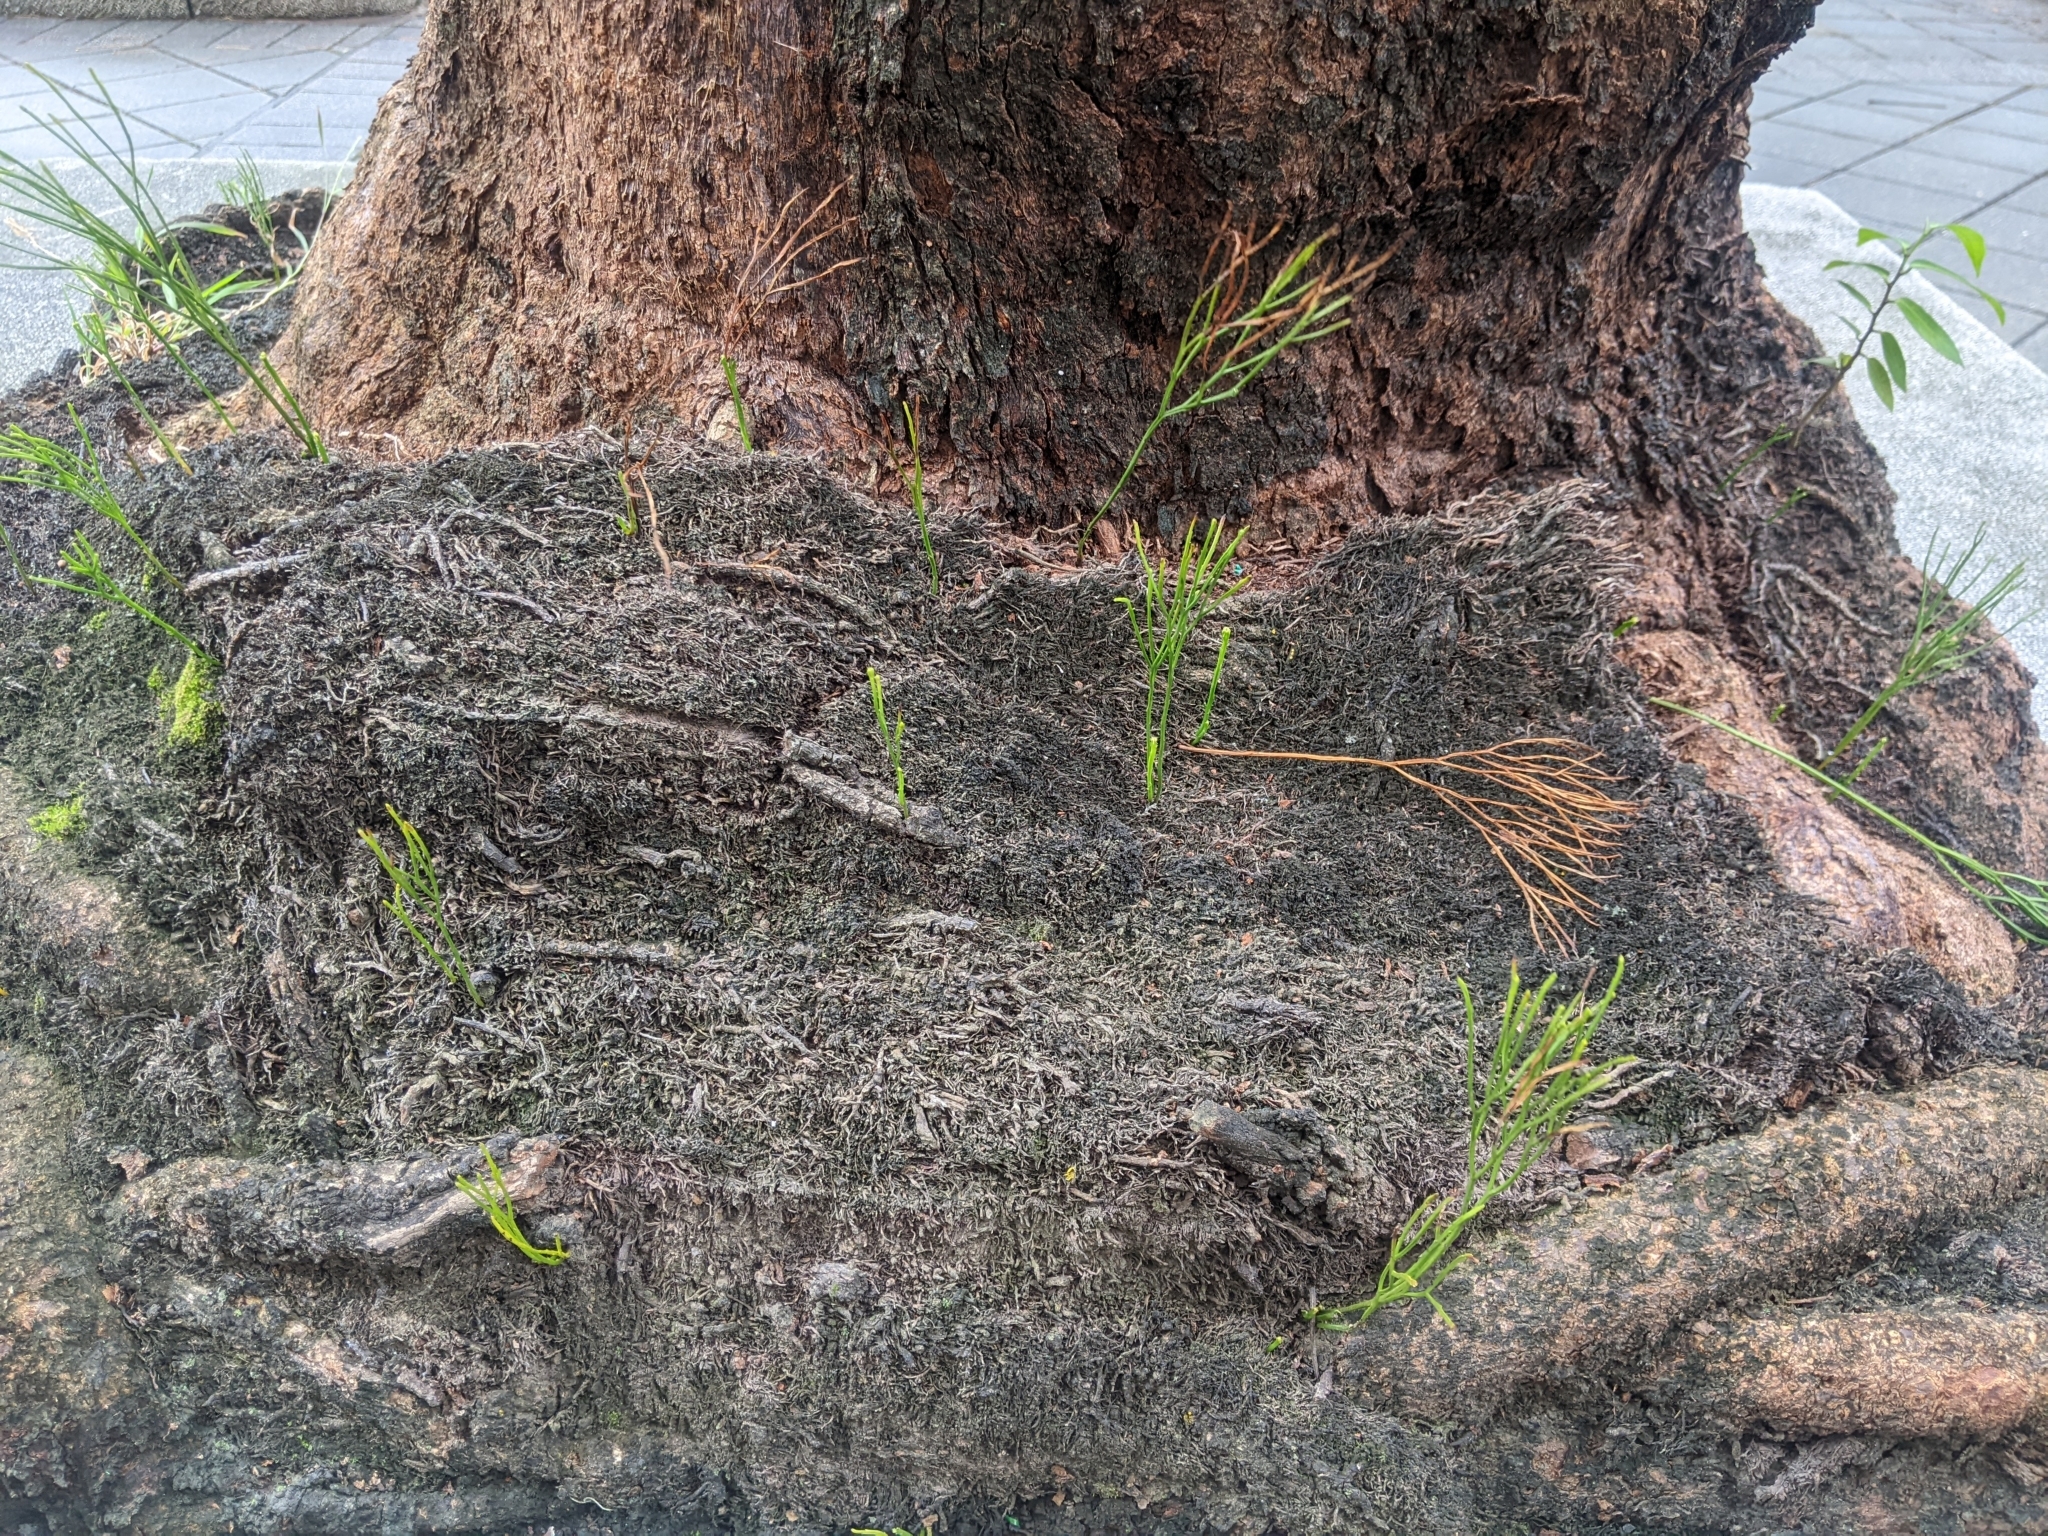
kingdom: Plantae
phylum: Tracheophyta
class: Polypodiopsida
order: Psilotales
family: Psilotaceae
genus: Psilotum
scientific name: Psilotum nudum
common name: Skeleton fork fern
